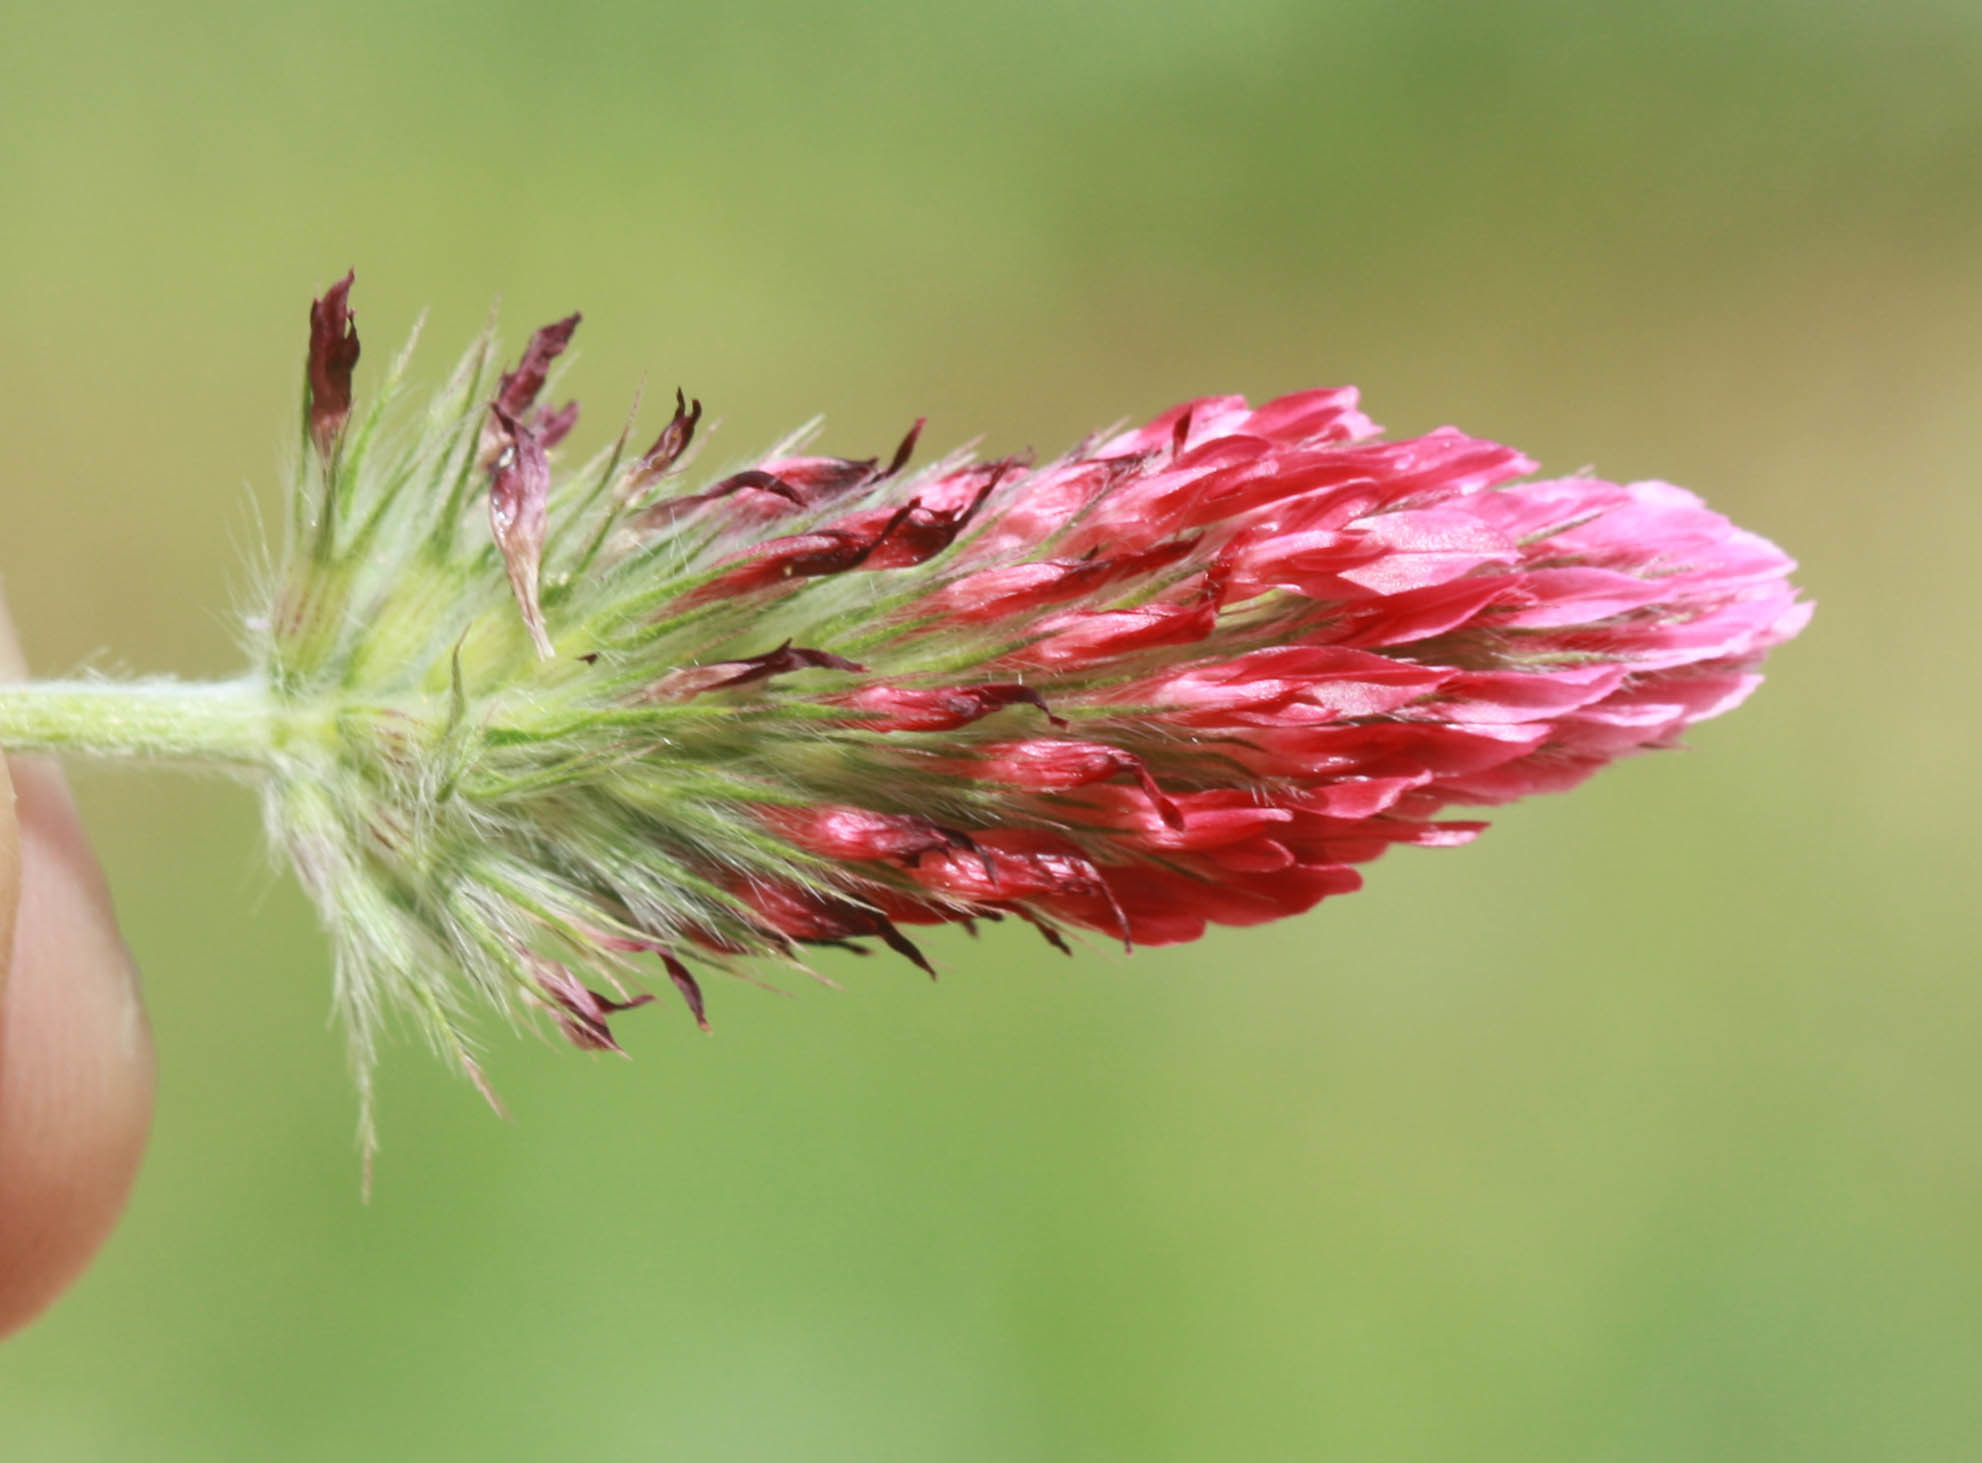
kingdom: Plantae
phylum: Tracheophyta
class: Magnoliopsida
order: Fabales
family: Fabaceae
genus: Trifolium
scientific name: Trifolium incarnatum
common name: Crimson clover
